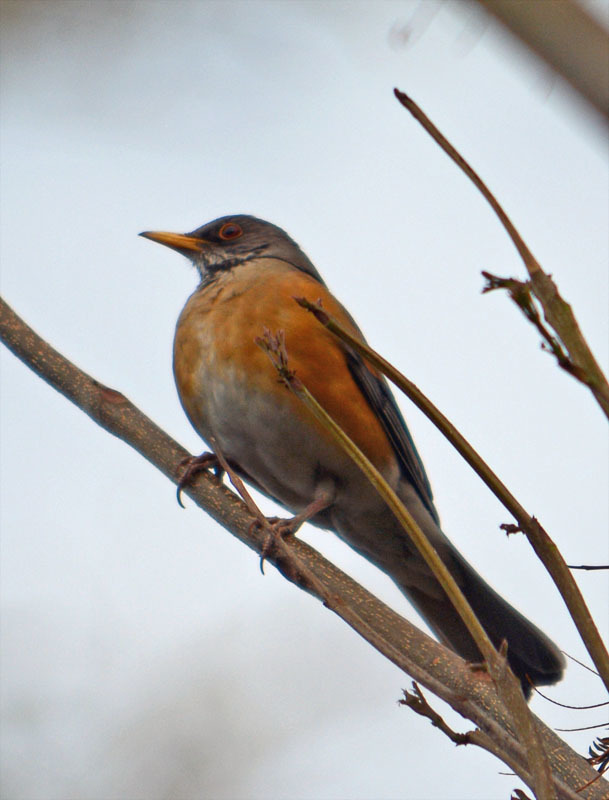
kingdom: Animalia
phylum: Chordata
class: Aves
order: Passeriformes
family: Turdidae
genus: Turdus
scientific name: Turdus rufopalliatus
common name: Rufous-backed robin
